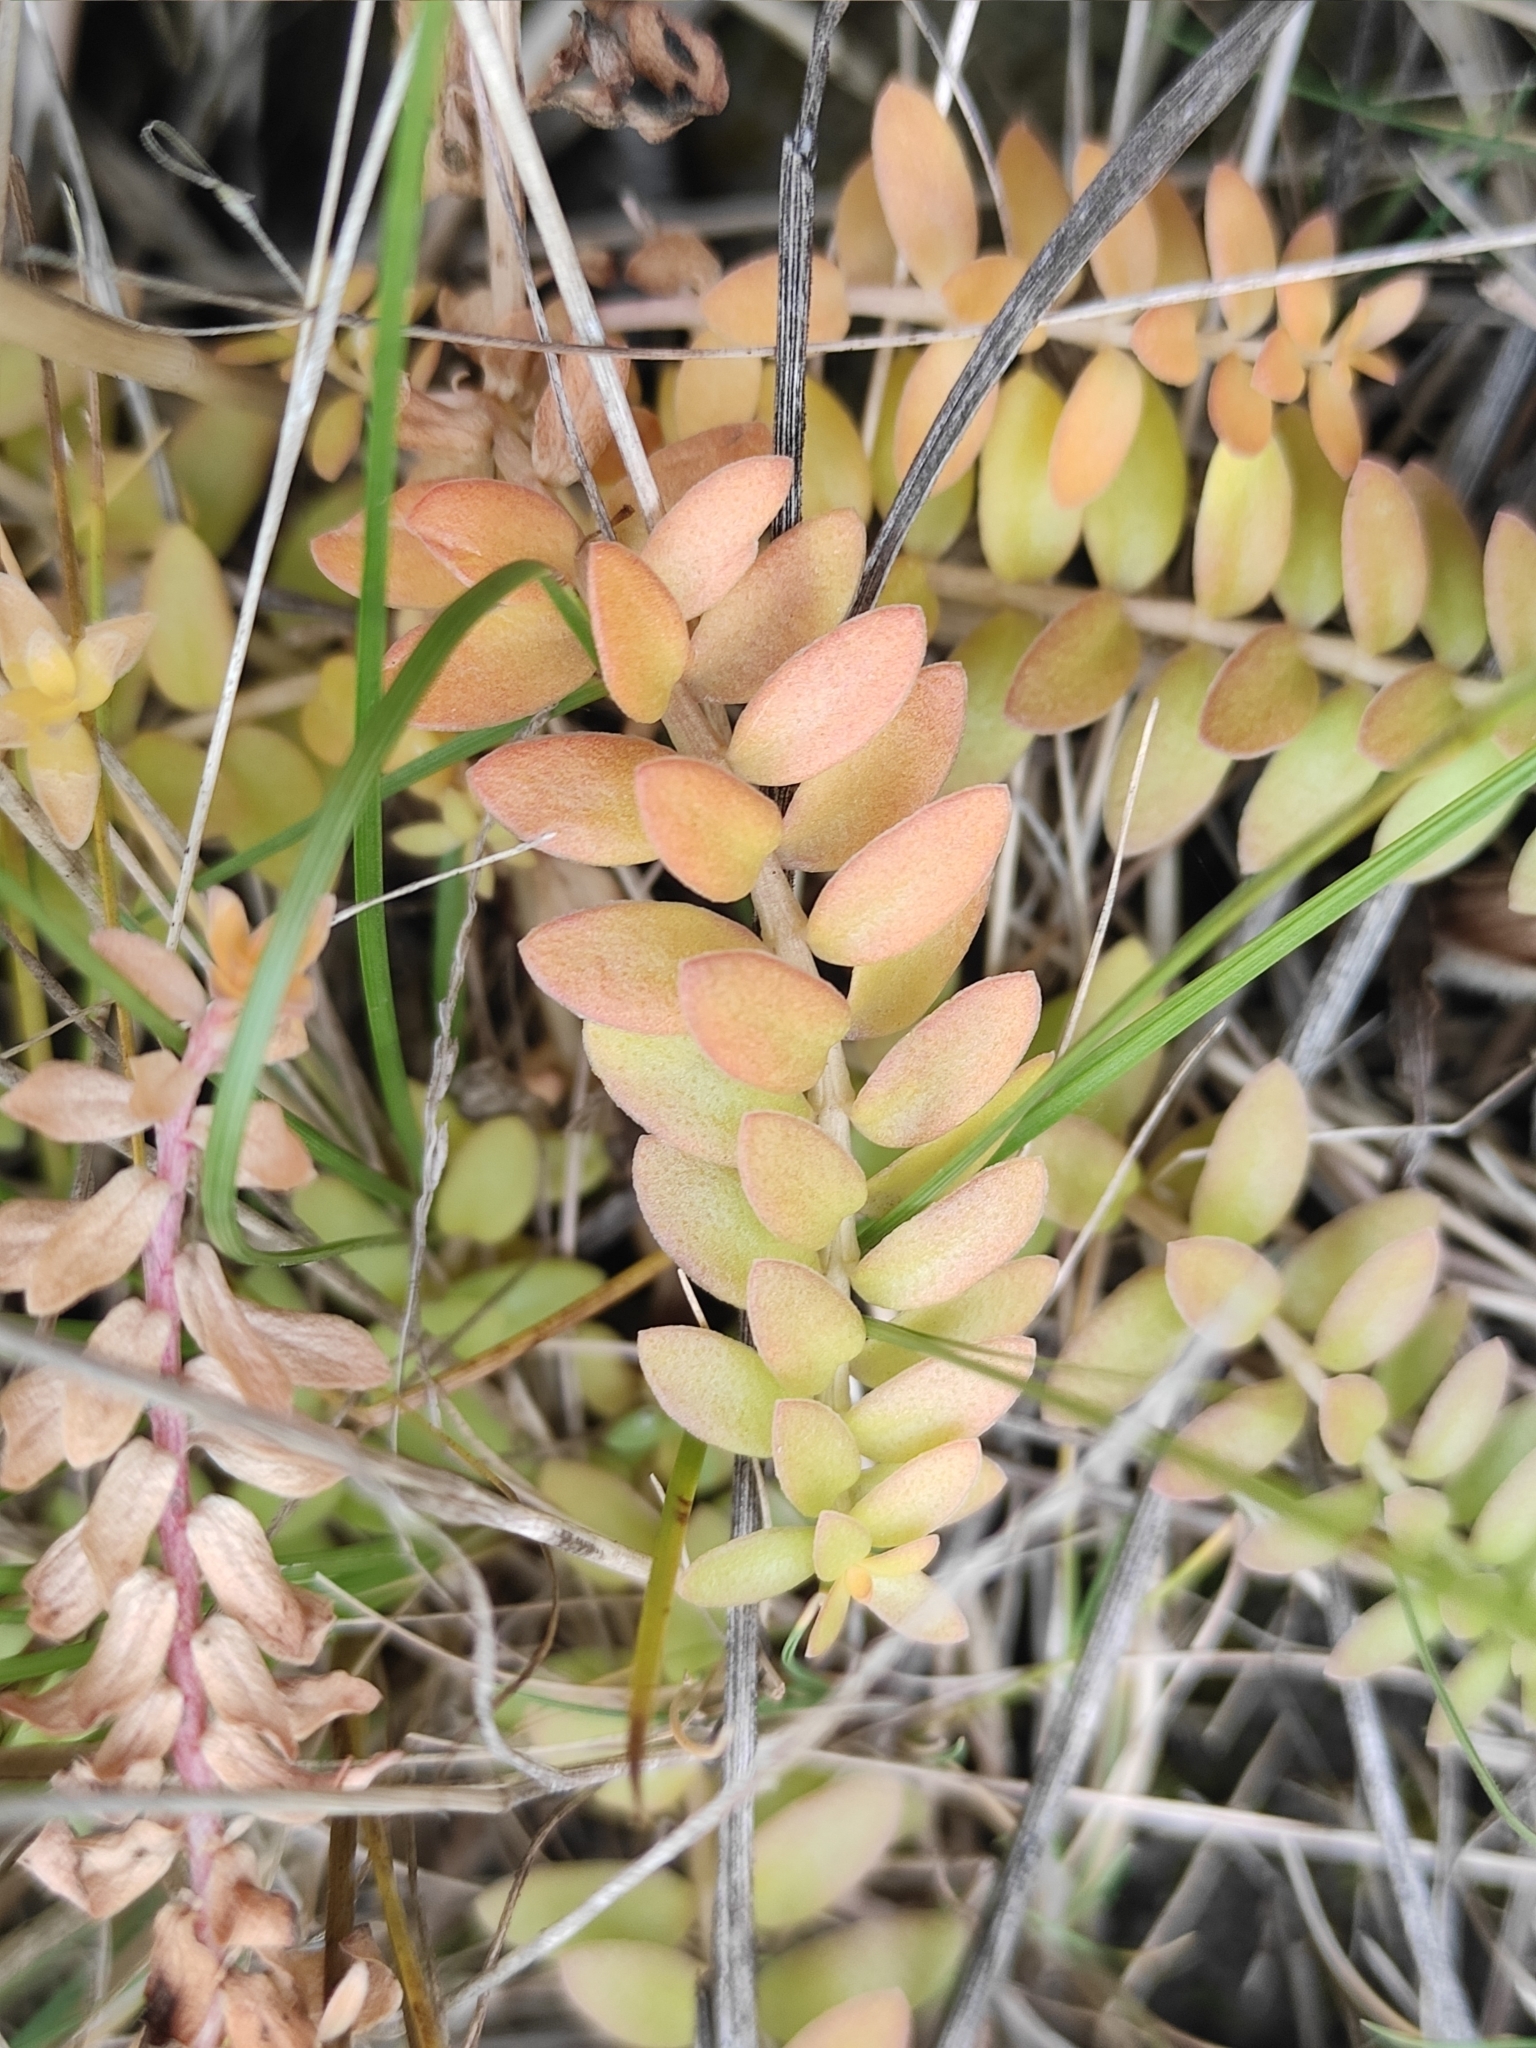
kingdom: Plantae
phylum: Tracheophyta
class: Magnoliopsida
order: Ericales
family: Primulaceae
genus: Lysimachia
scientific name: Lysimachia maritima
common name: Sea milkwort
